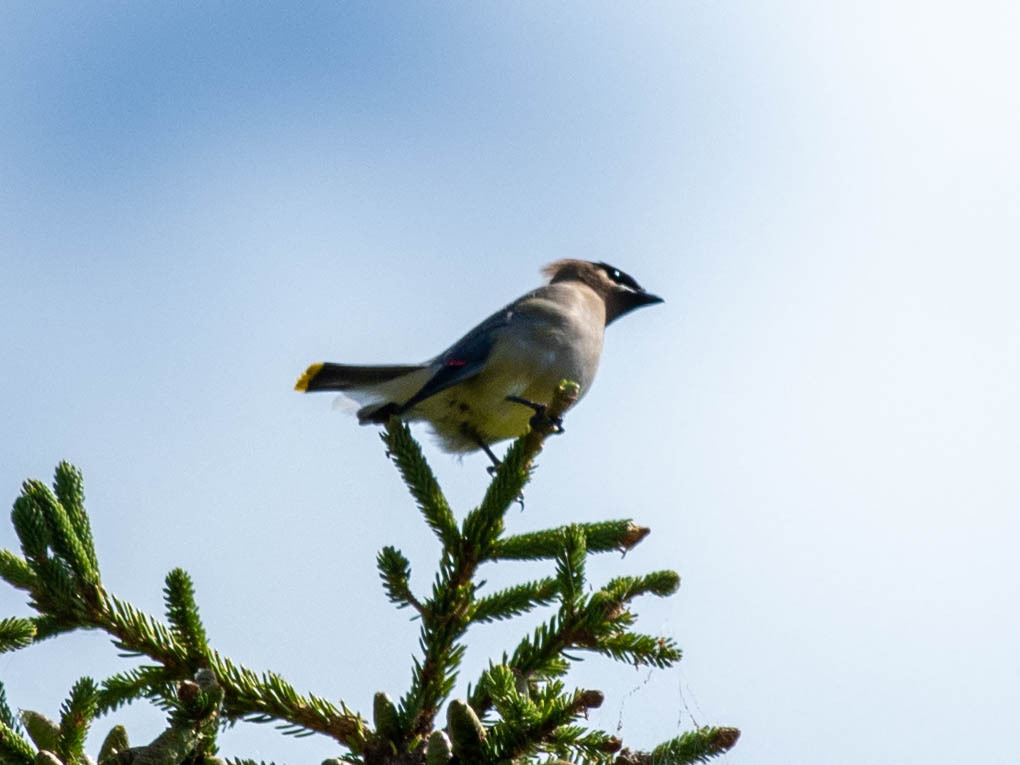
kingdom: Animalia
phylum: Chordata
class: Aves
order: Passeriformes
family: Bombycillidae
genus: Bombycilla
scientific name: Bombycilla cedrorum
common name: Cedar waxwing
